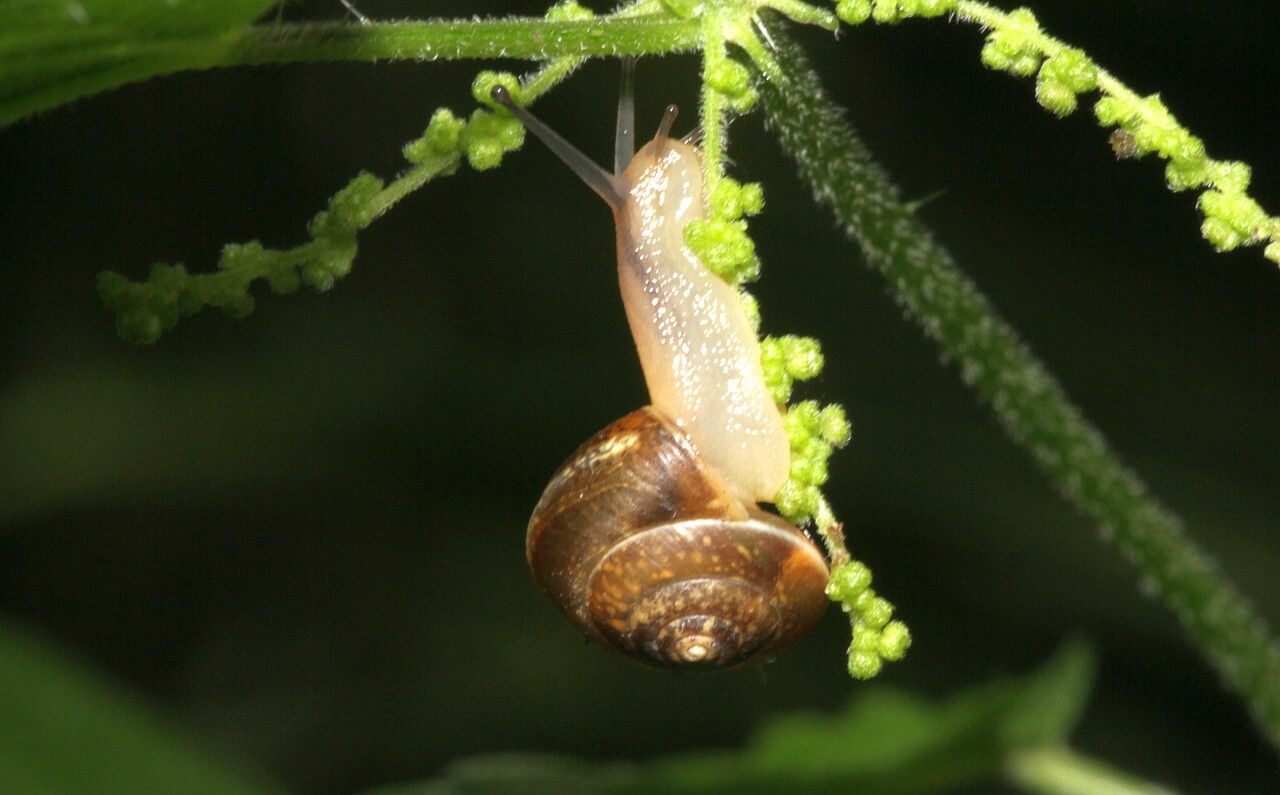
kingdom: Animalia
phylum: Mollusca
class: Gastropoda
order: Stylommatophora
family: Hygromiidae
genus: Hygromia
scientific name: Hygromia cinctella
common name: Girdled snail
